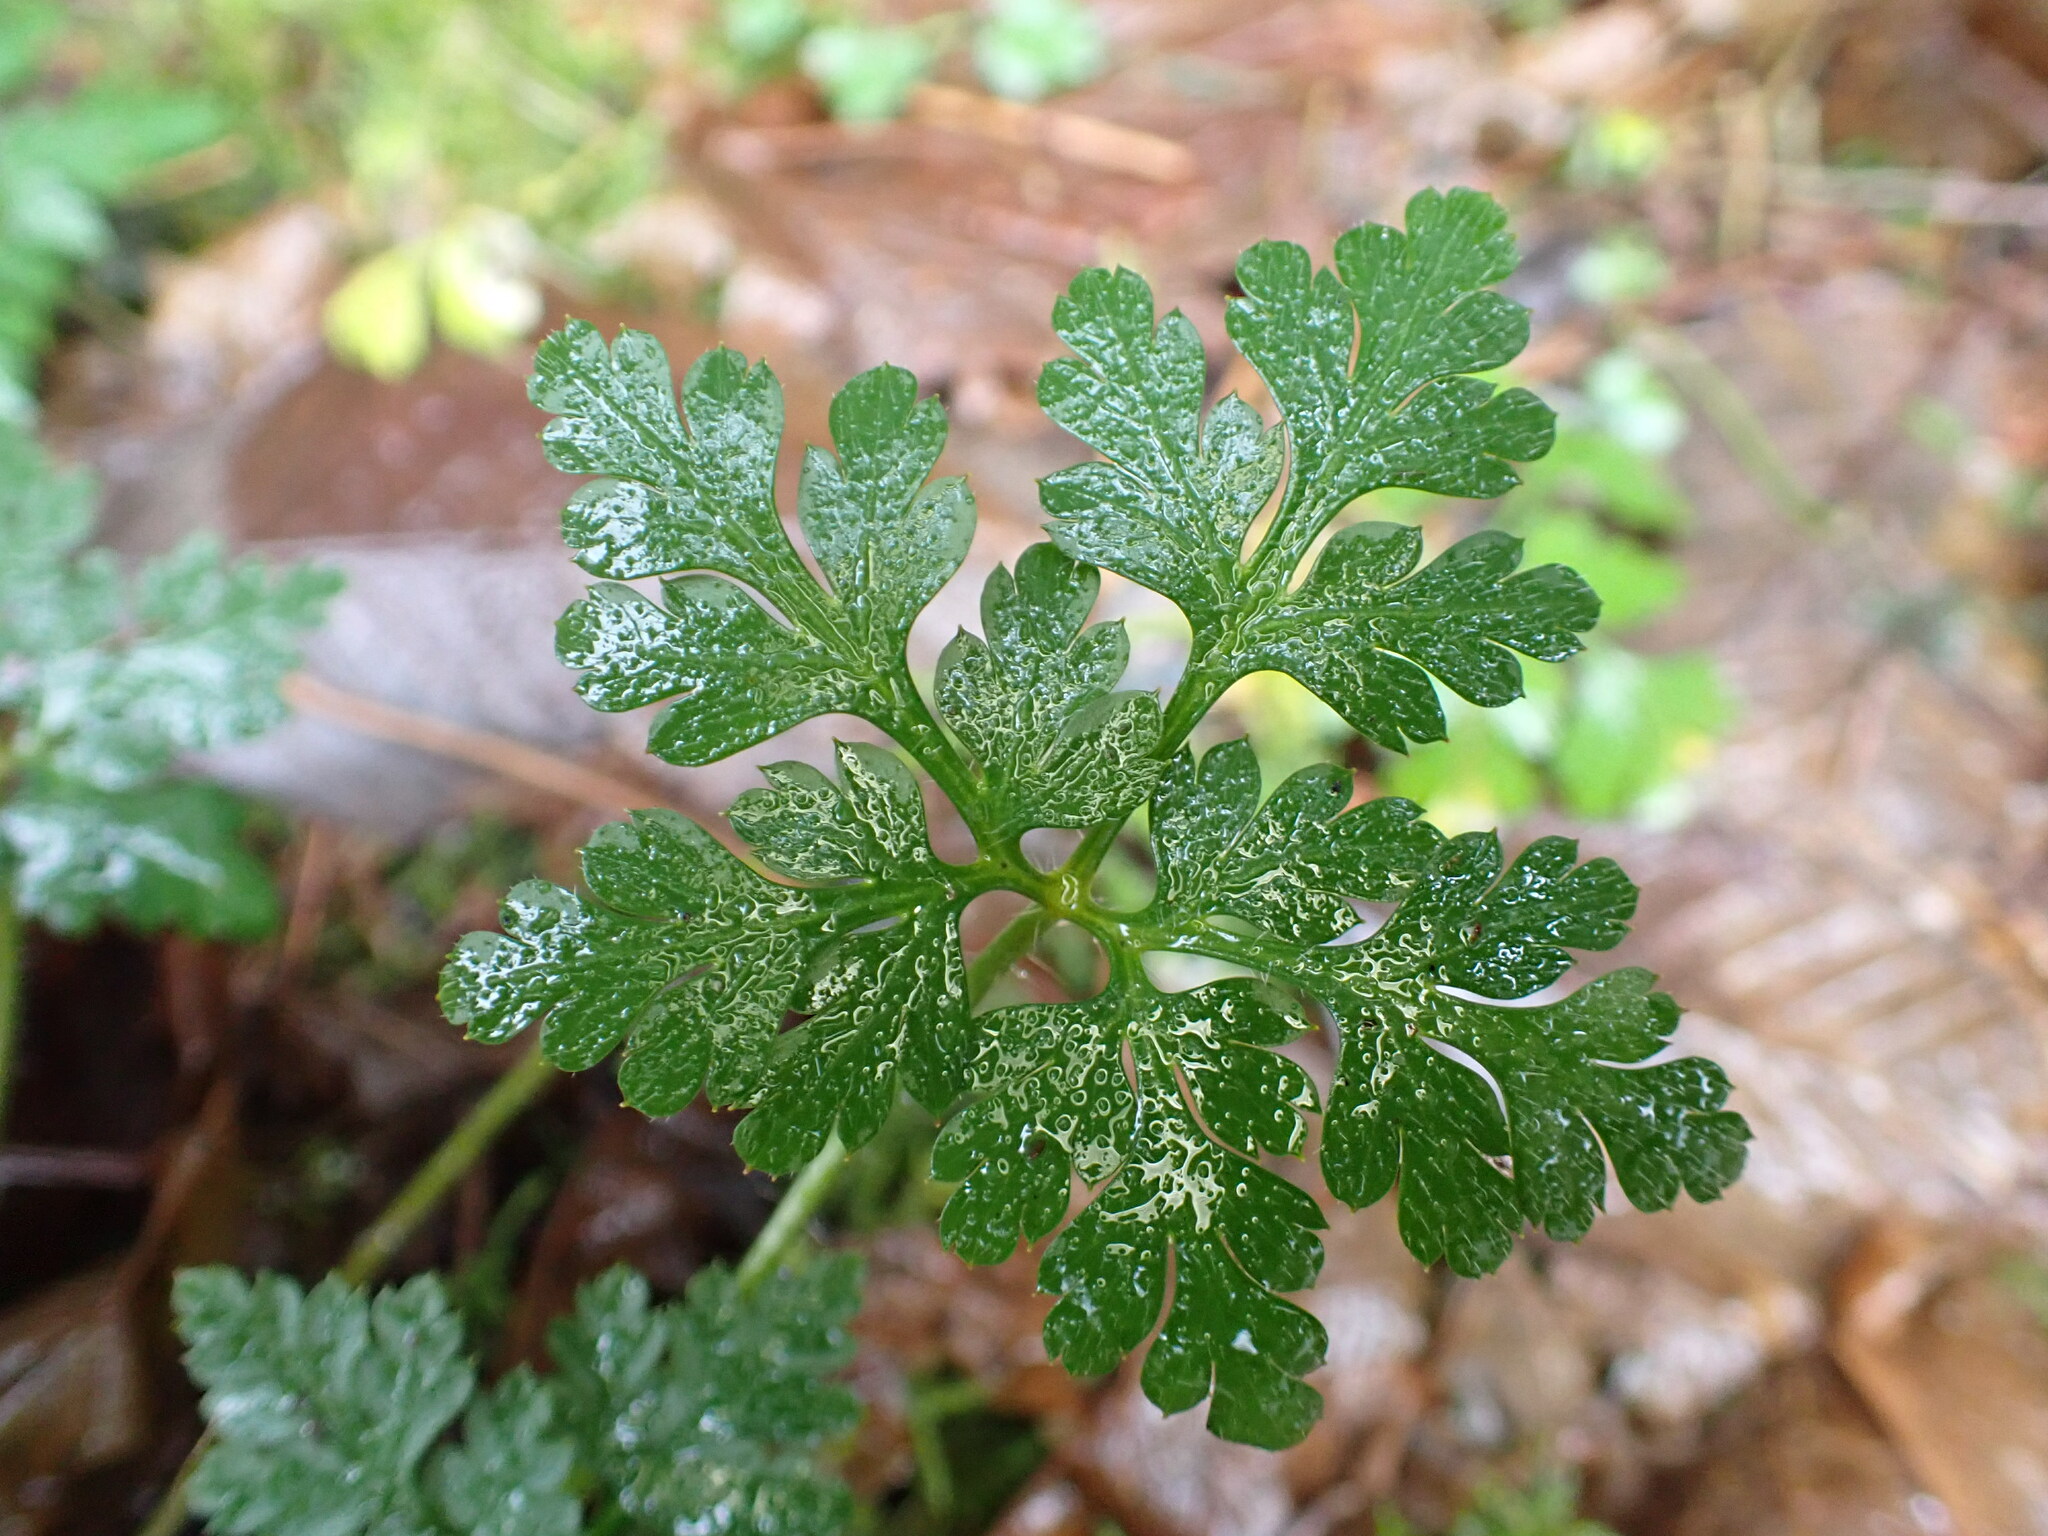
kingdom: Plantae
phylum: Tracheophyta
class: Magnoliopsida
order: Geraniales
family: Geraniaceae
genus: Geranium
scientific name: Geranium robertianum
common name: Herb-robert
